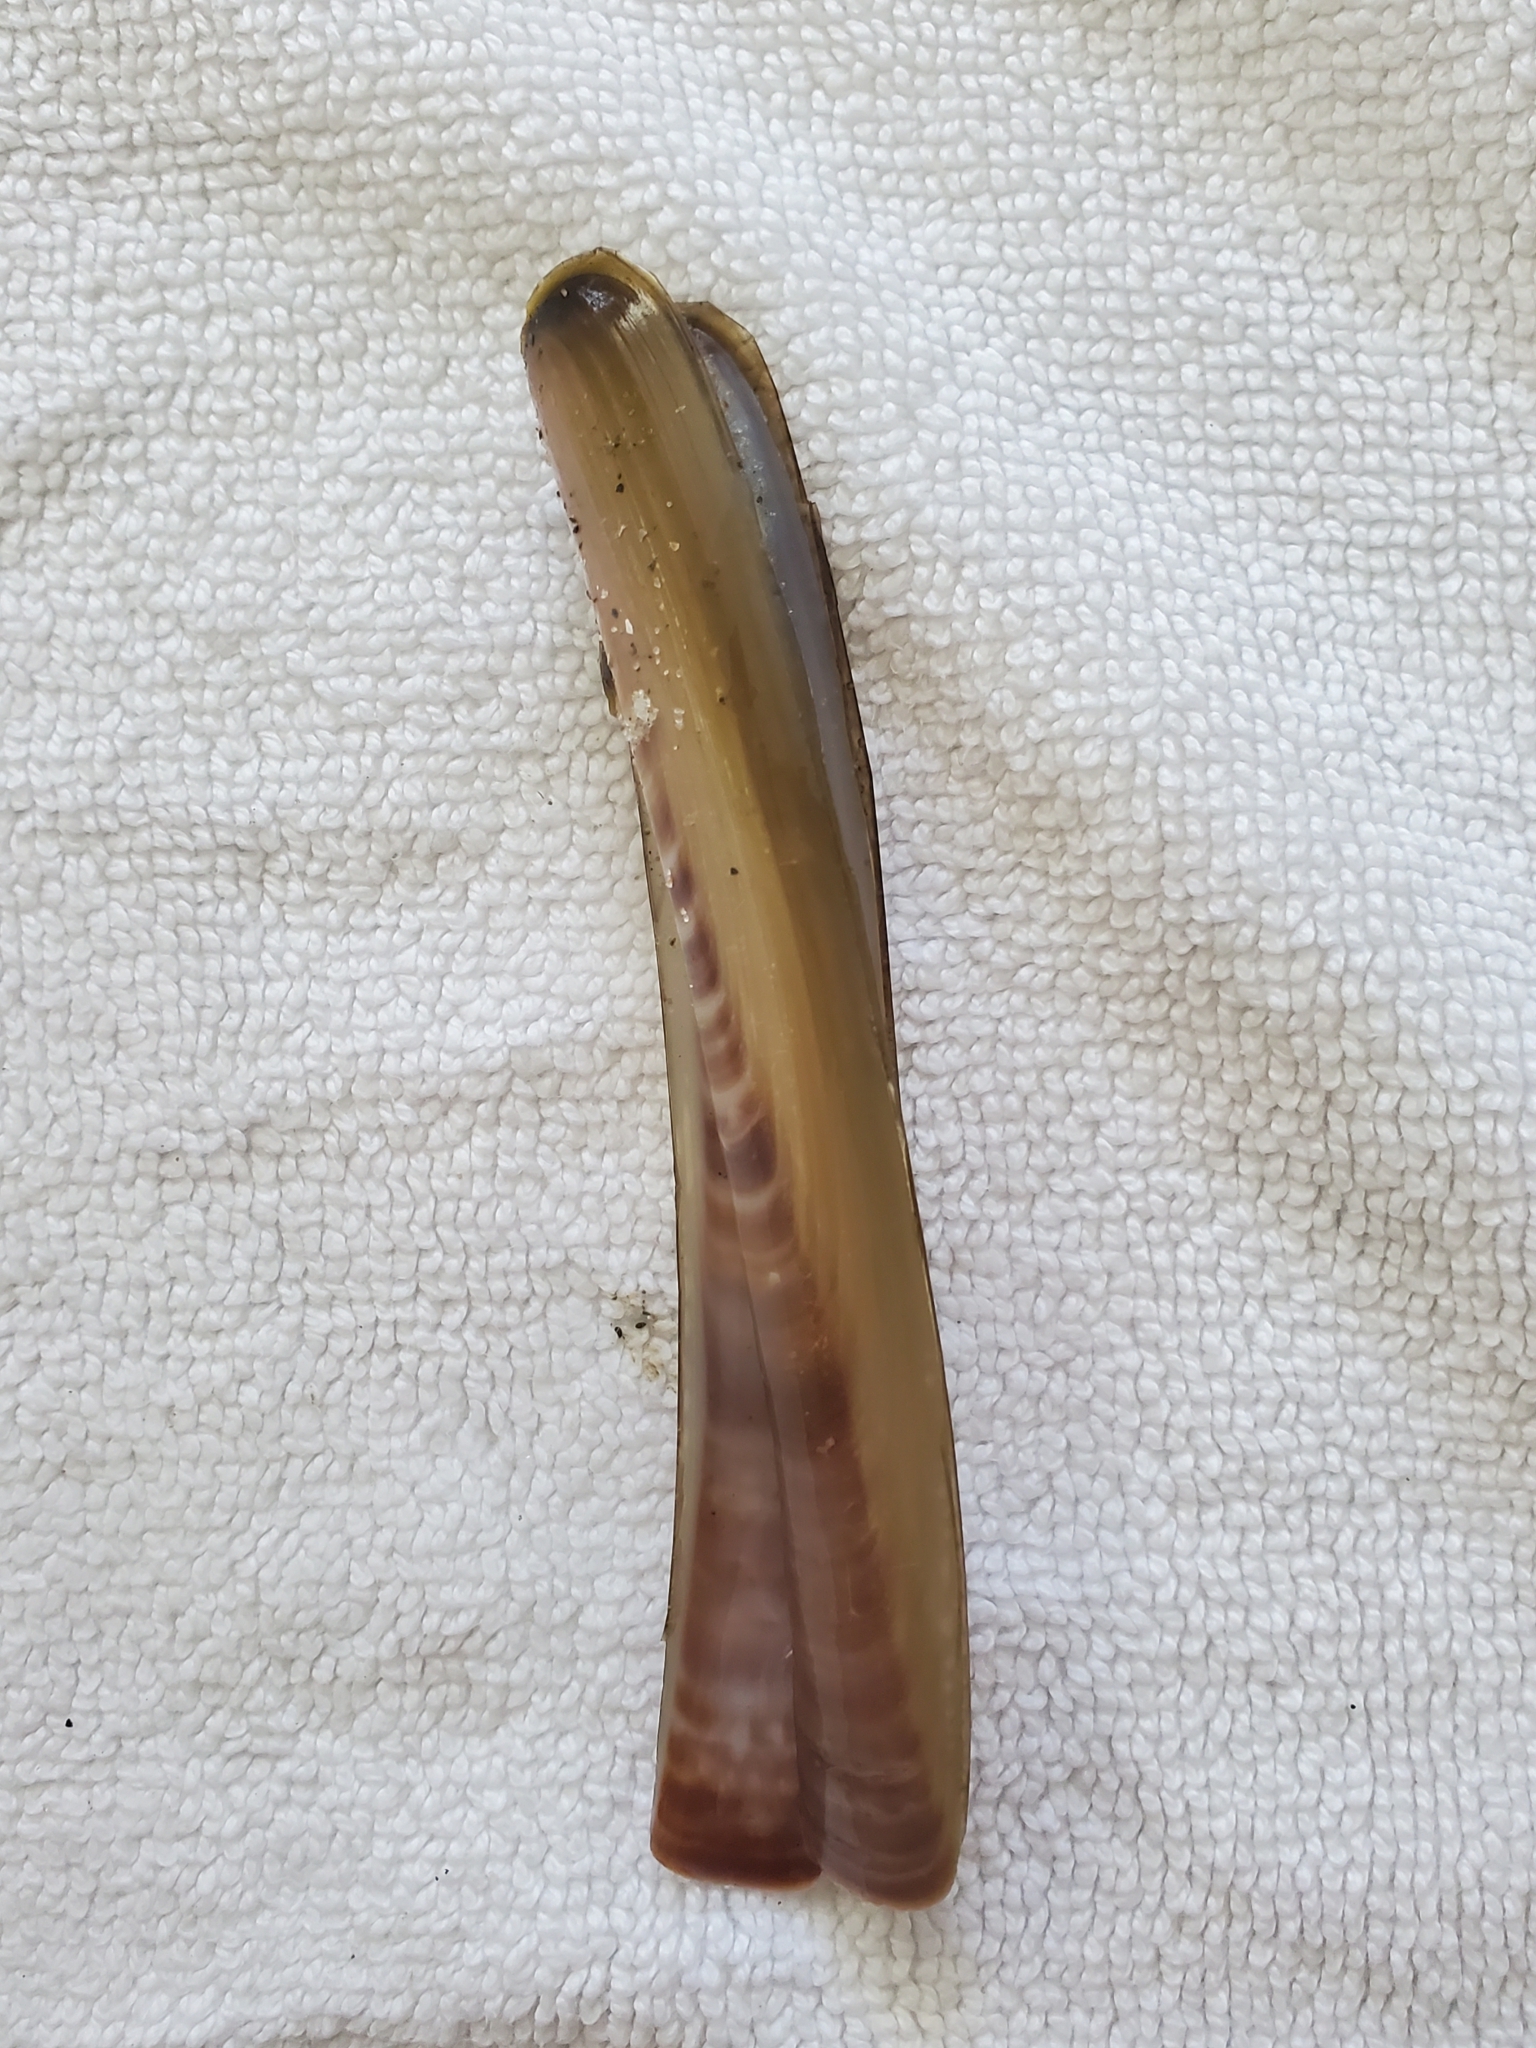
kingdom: Animalia
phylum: Mollusca
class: Bivalvia
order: Adapedonta
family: Pharidae
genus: Ensis
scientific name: Ensis leei
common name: American jack knife clam
